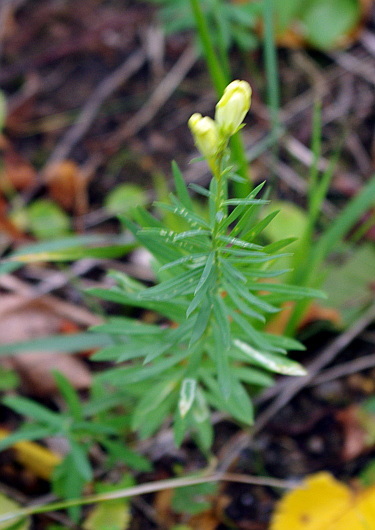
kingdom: Plantae
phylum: Tracheophyta
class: Magnoliopsida
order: Lamiales
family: Plantaginaceae
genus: Linaria
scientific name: Linaria vulgaris
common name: Butter and eggs
